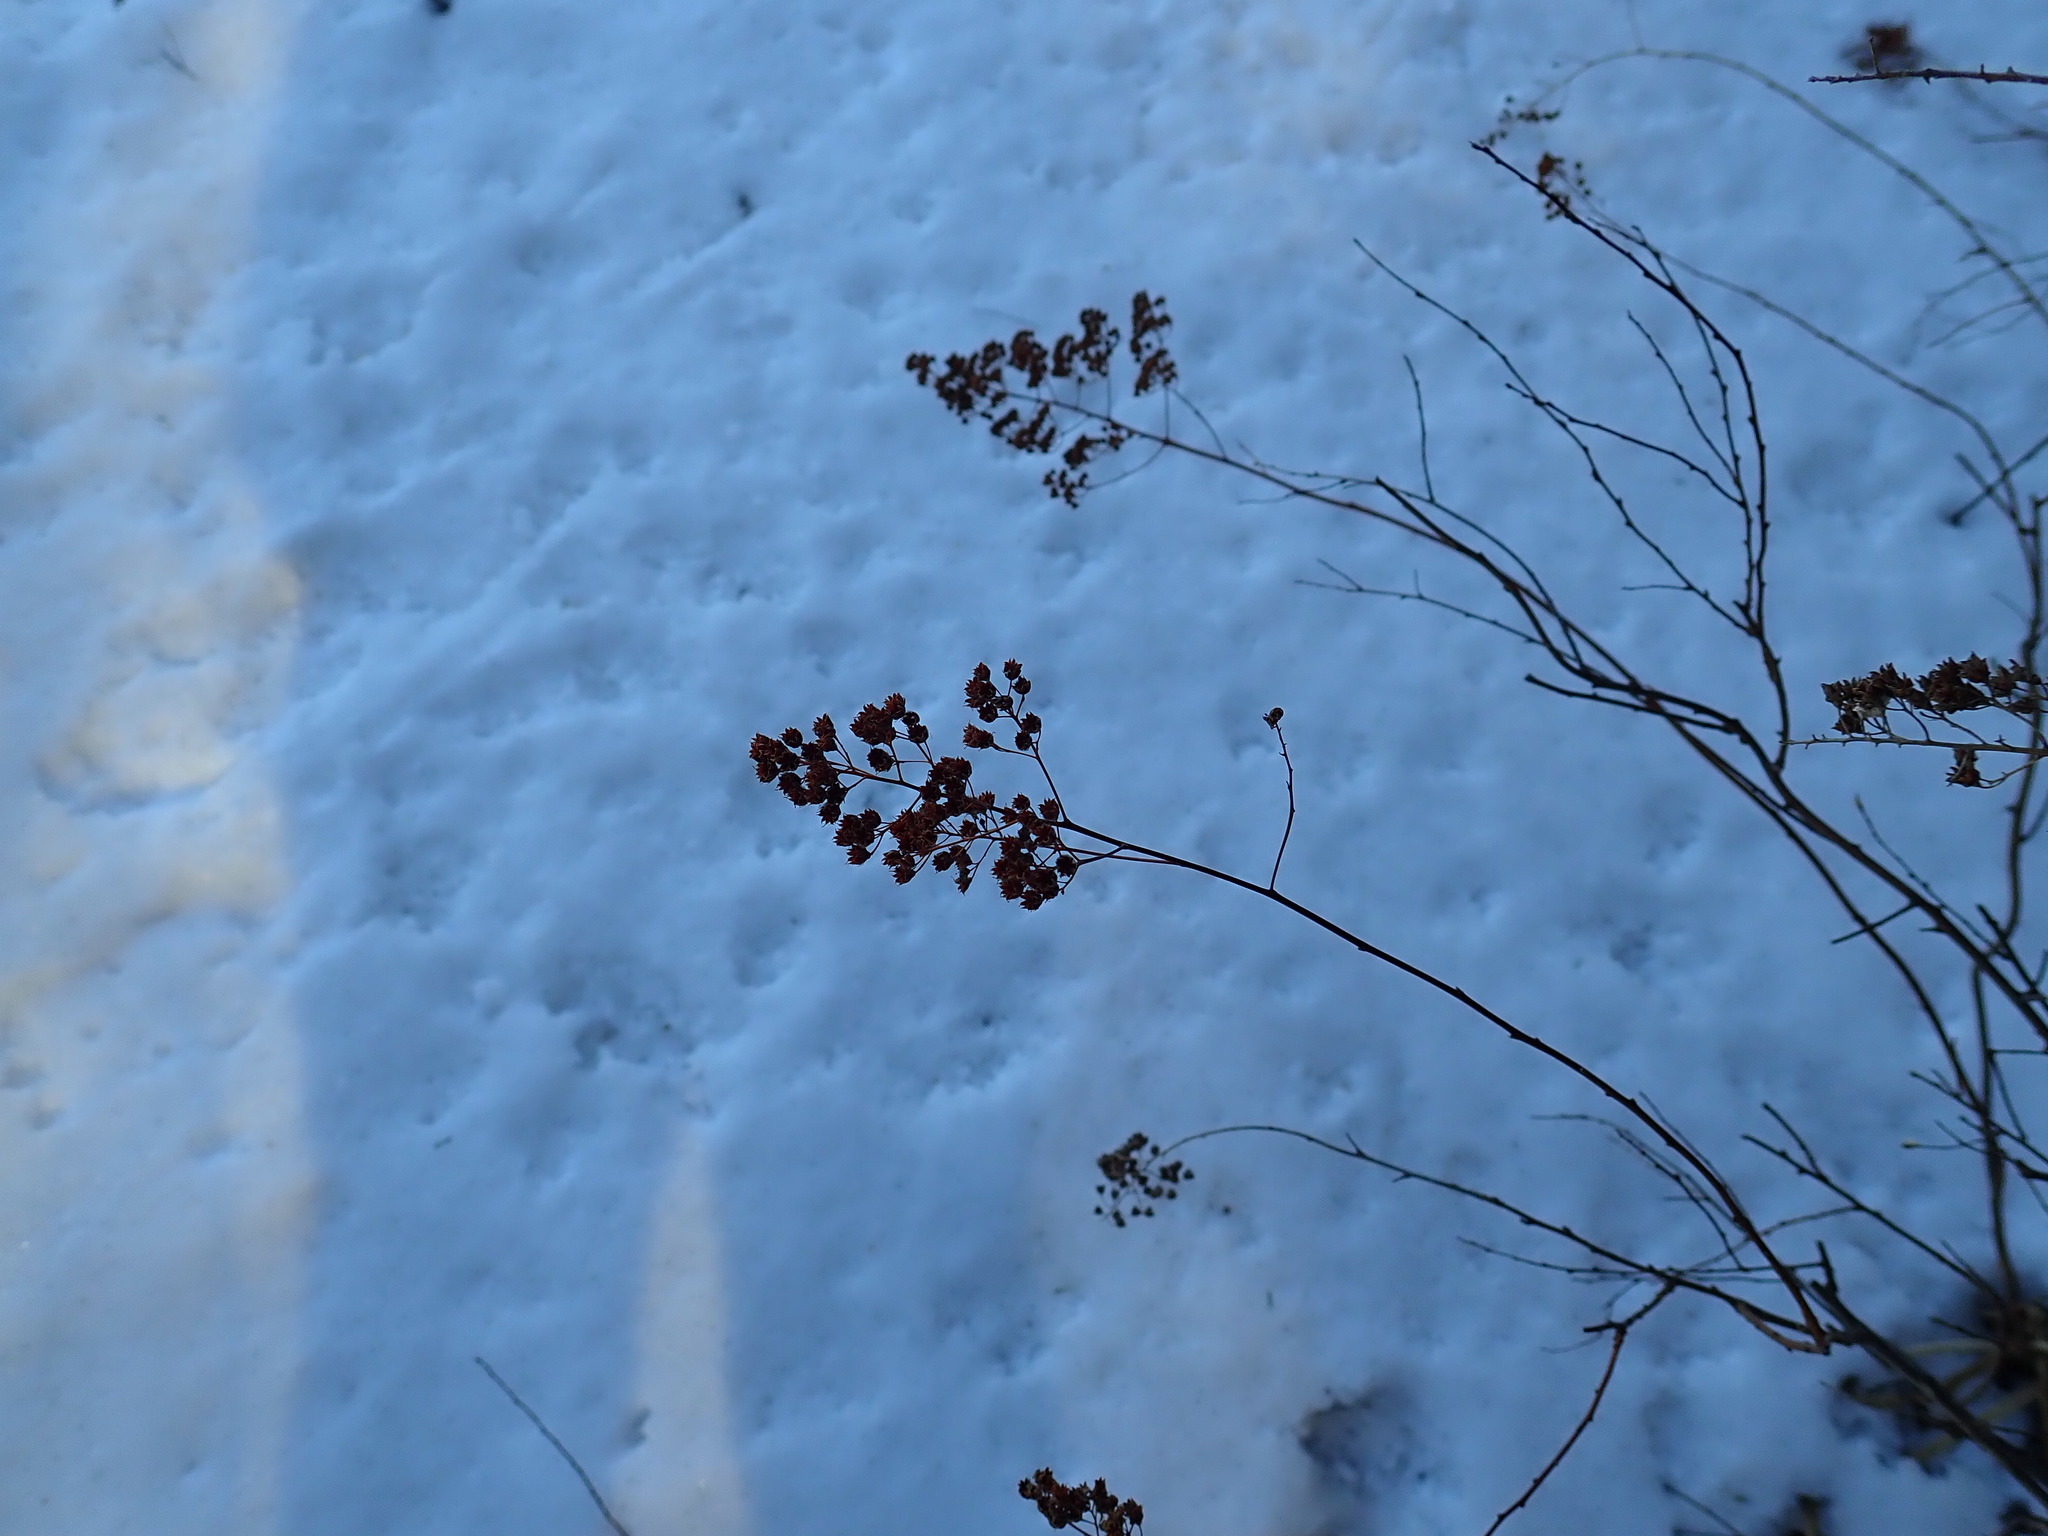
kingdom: Plantae
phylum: Tracheophyta
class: Magnoliopsida
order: Rosales
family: Rosaceae
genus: Spiraea
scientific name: Spiraea alba
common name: Pale bridewort
